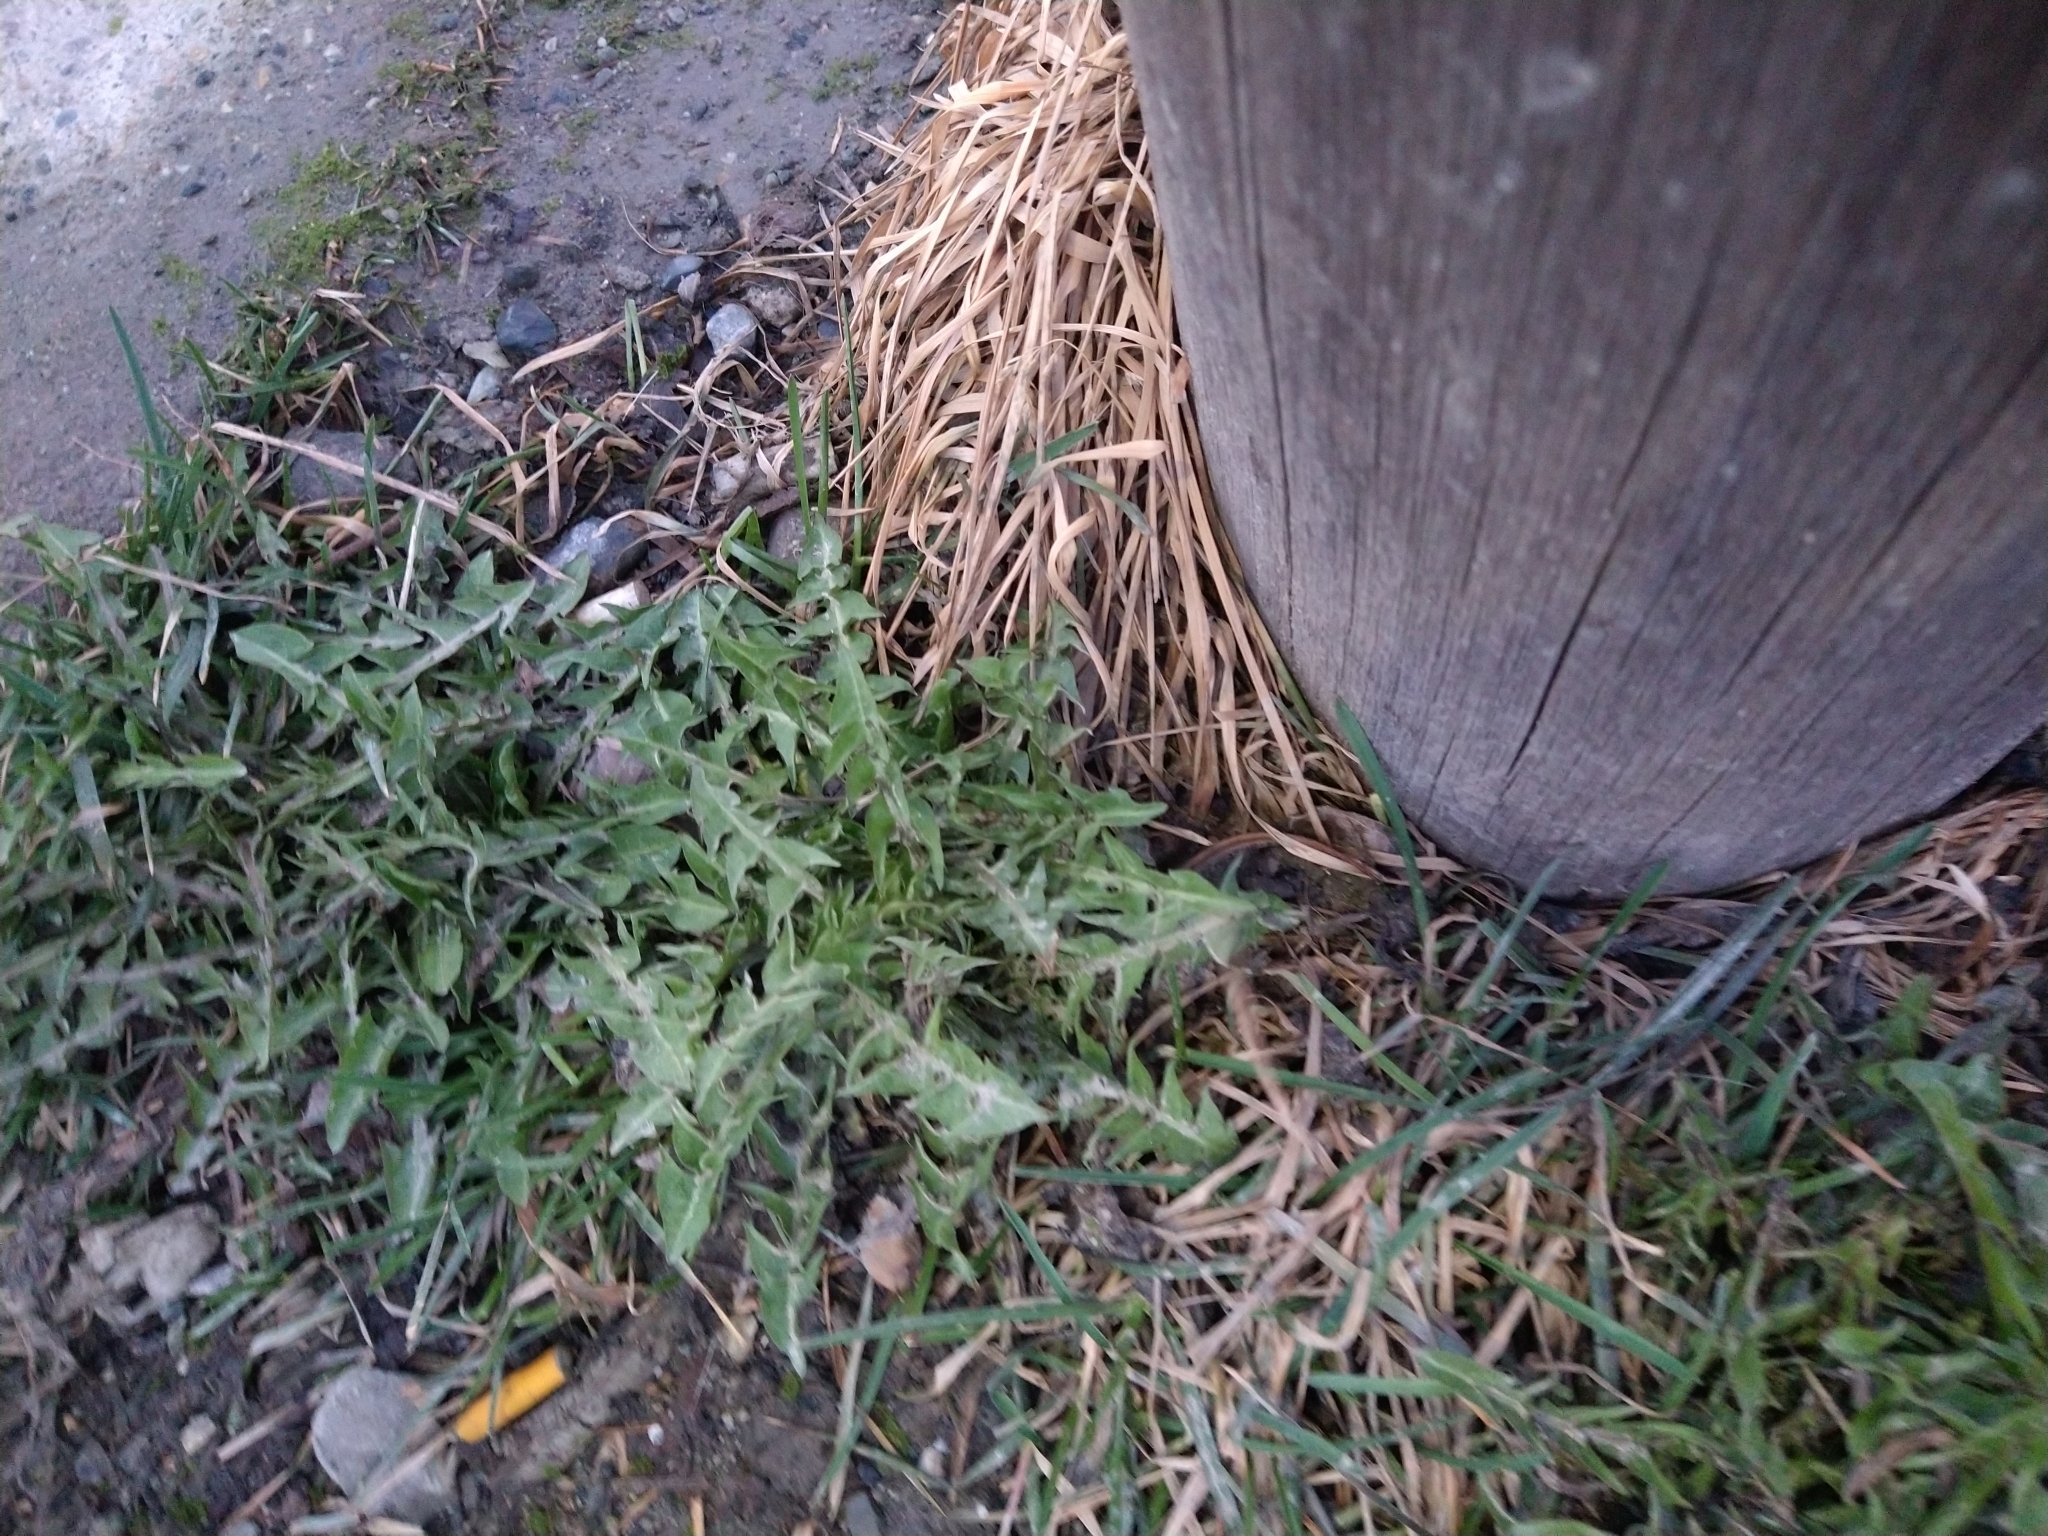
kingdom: Plantae
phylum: Tracheophyta
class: Magnoliopsida
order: Asterales
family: Asteraceae
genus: Taraxacum
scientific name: Taraxacum officinale
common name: Common dandelion
